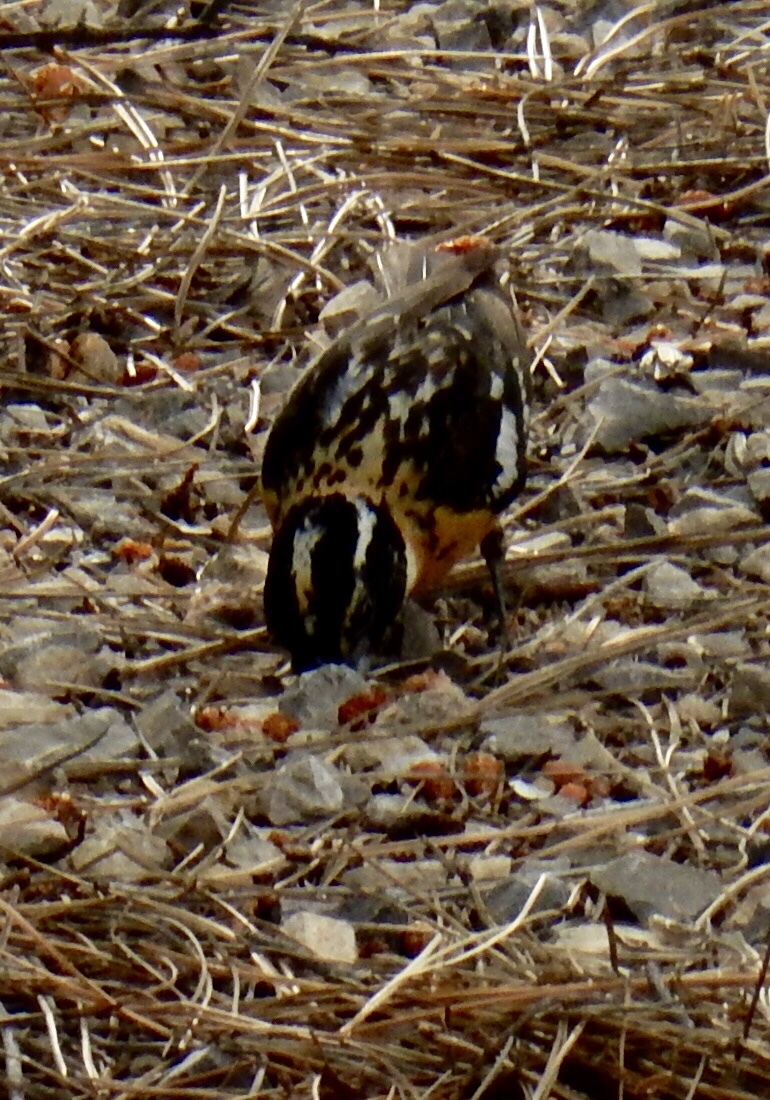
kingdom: Animalia
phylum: Chordata
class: Aves
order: Passeriformes
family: Cardinalidae
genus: Pheucticus
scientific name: Pheucticus melanocephalus
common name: Black-headed grosbeak
